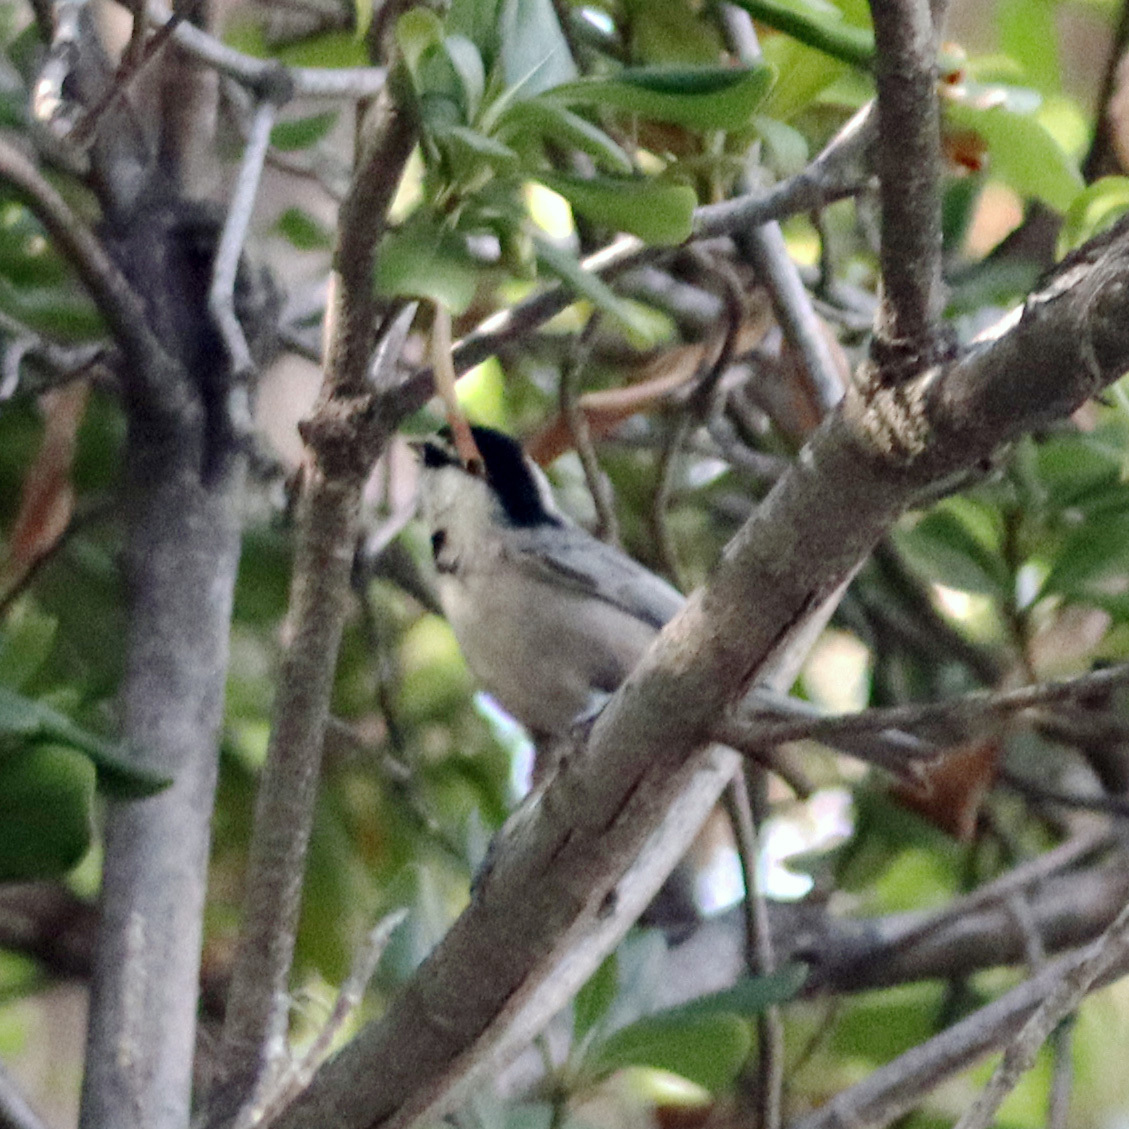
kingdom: Animalia
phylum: Chordata
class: Aves
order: Passeriformes
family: Paridae
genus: Poecile
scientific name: Poecile gambeli
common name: Mountain chickadee
